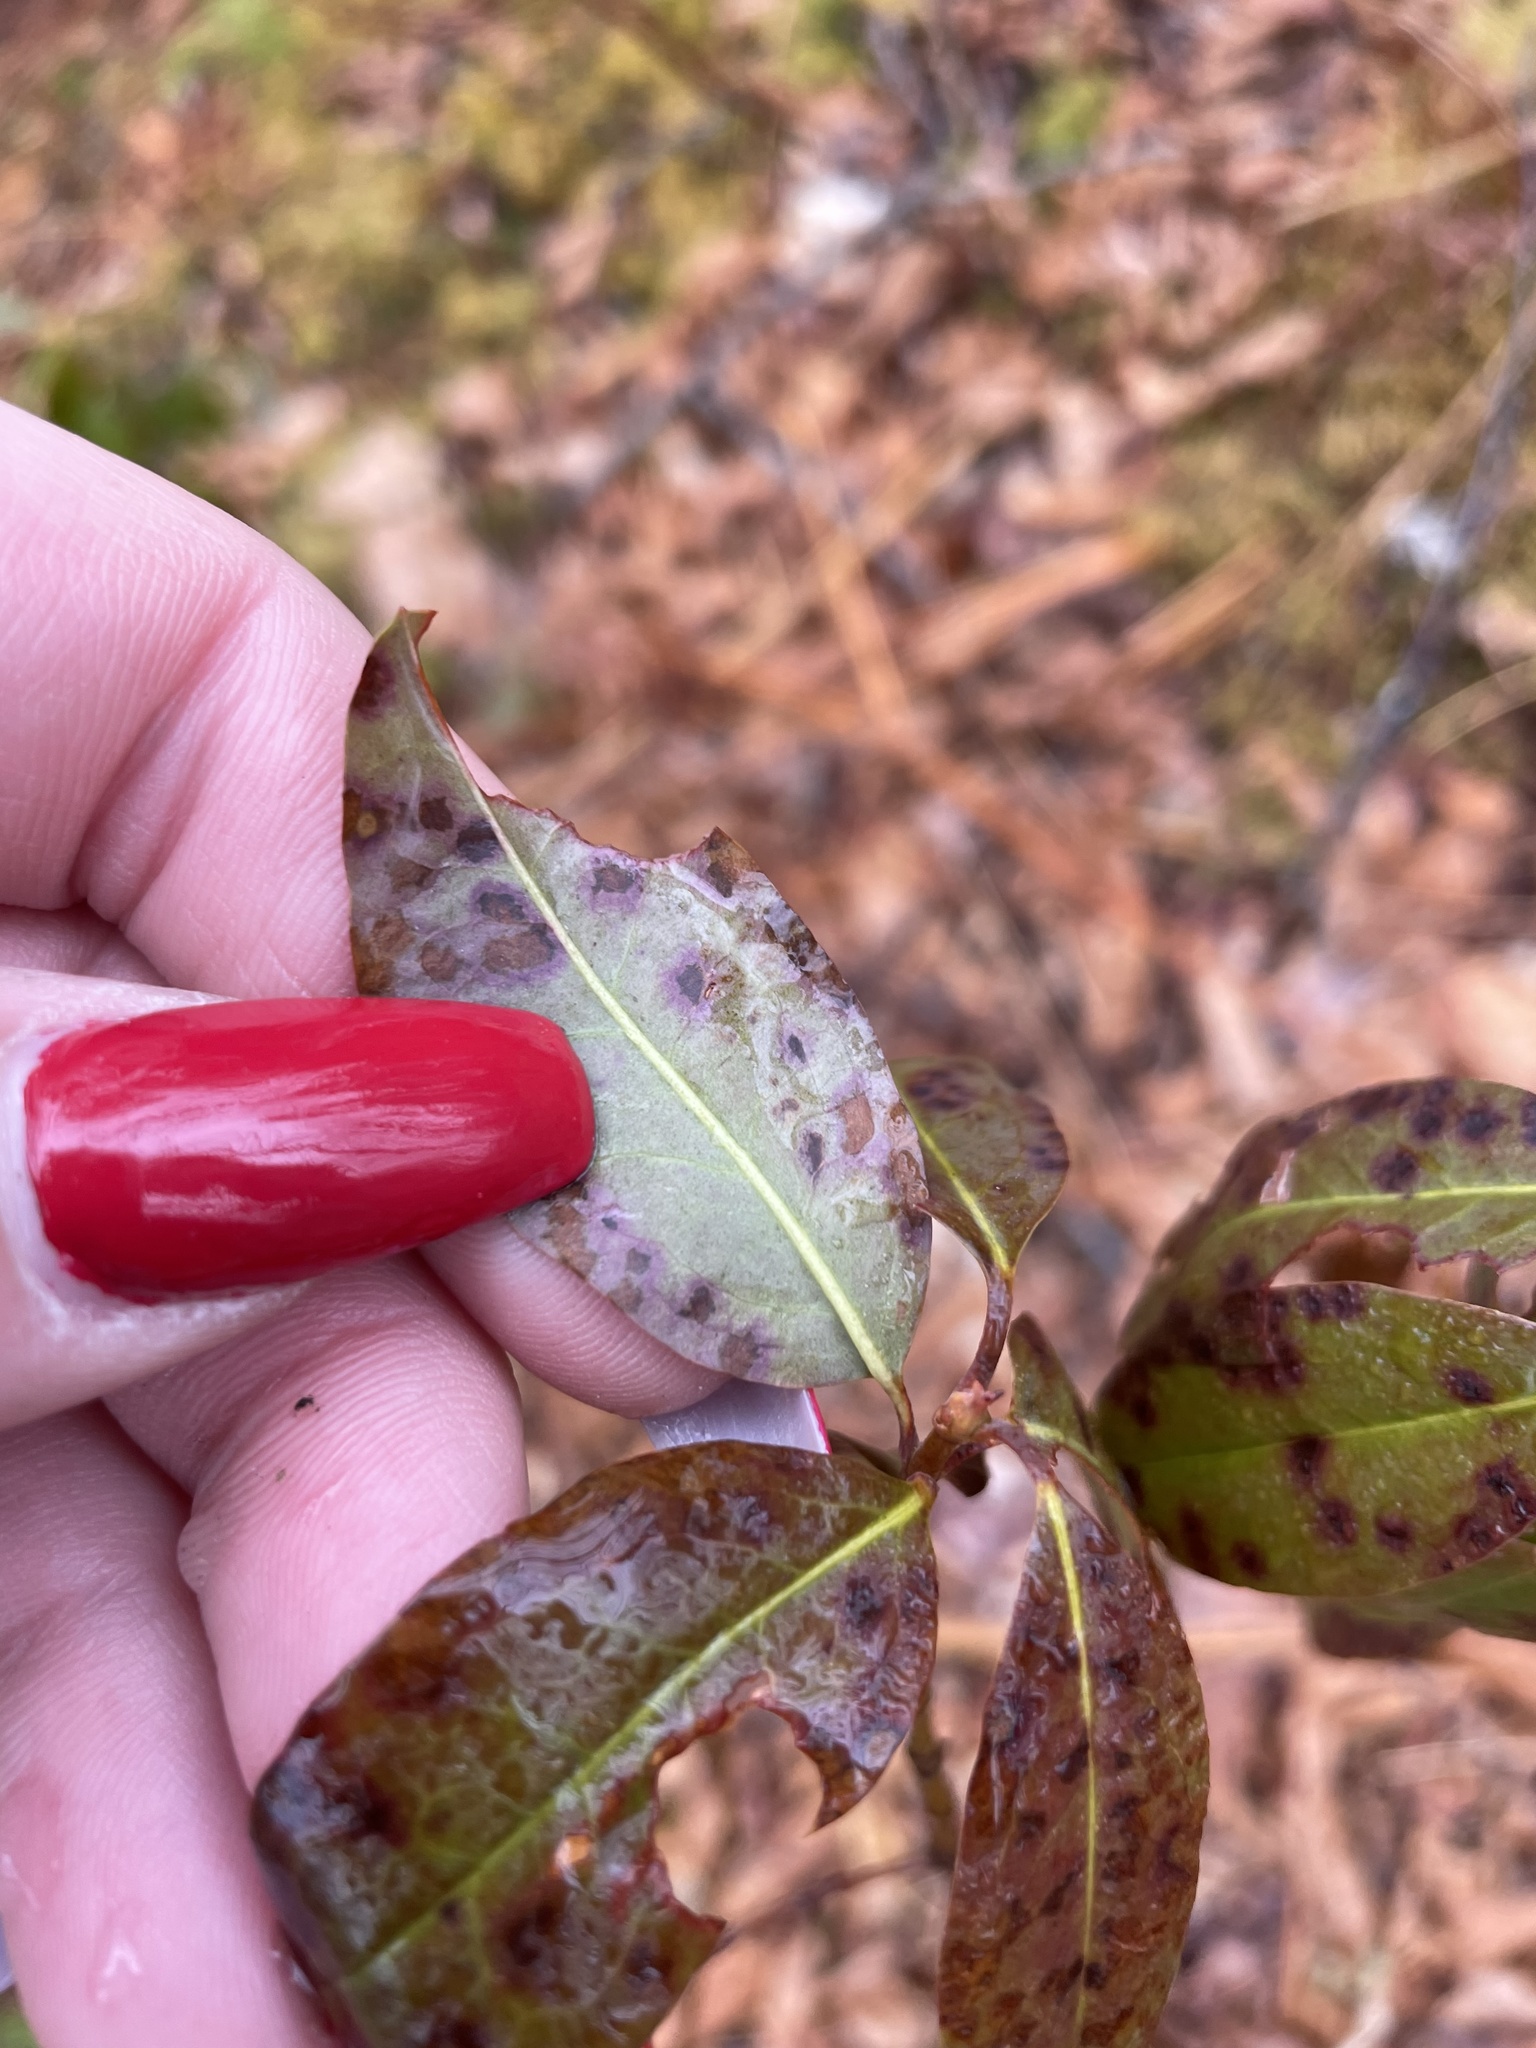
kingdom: Plantae
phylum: Tracheophyta
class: Magnoliopsida
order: Ericales
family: Ericaceae
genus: Kalmia
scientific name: Kalmia angustifolia
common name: Sheep-laurel
